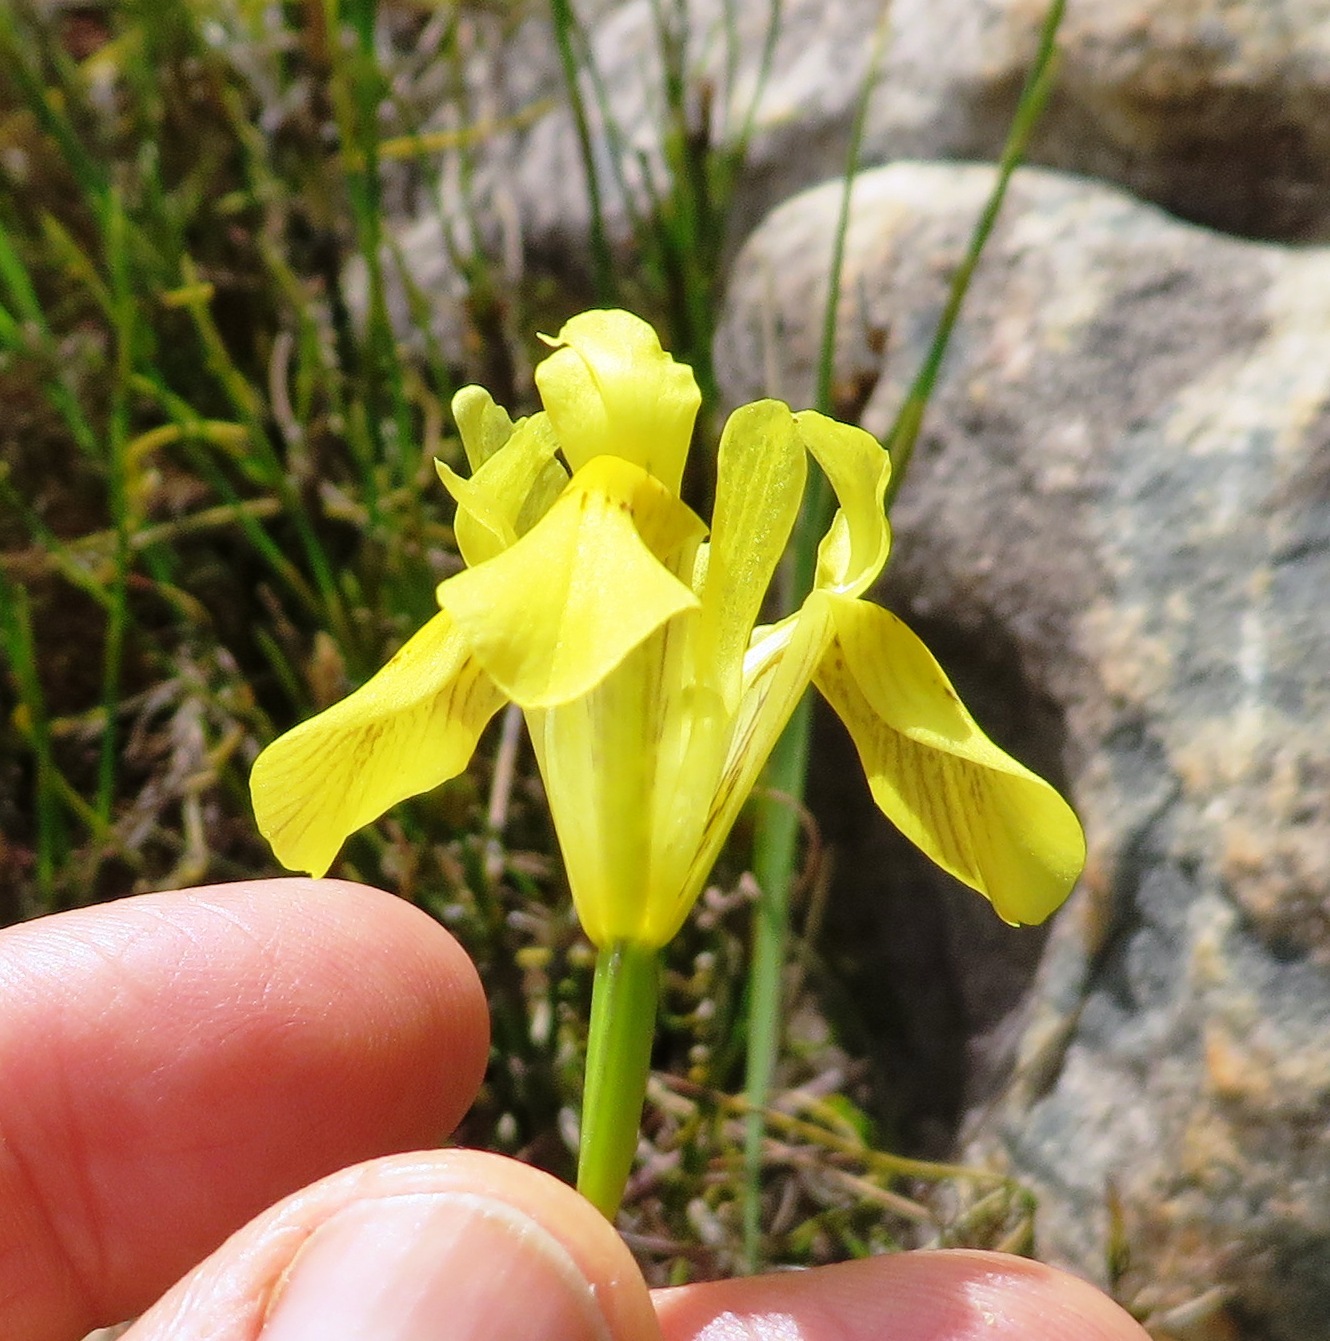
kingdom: Plantae
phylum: Tracheophyta
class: Liliopsida
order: Asparagales
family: Iridaceae
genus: Moraea
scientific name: Moraea neglecta
